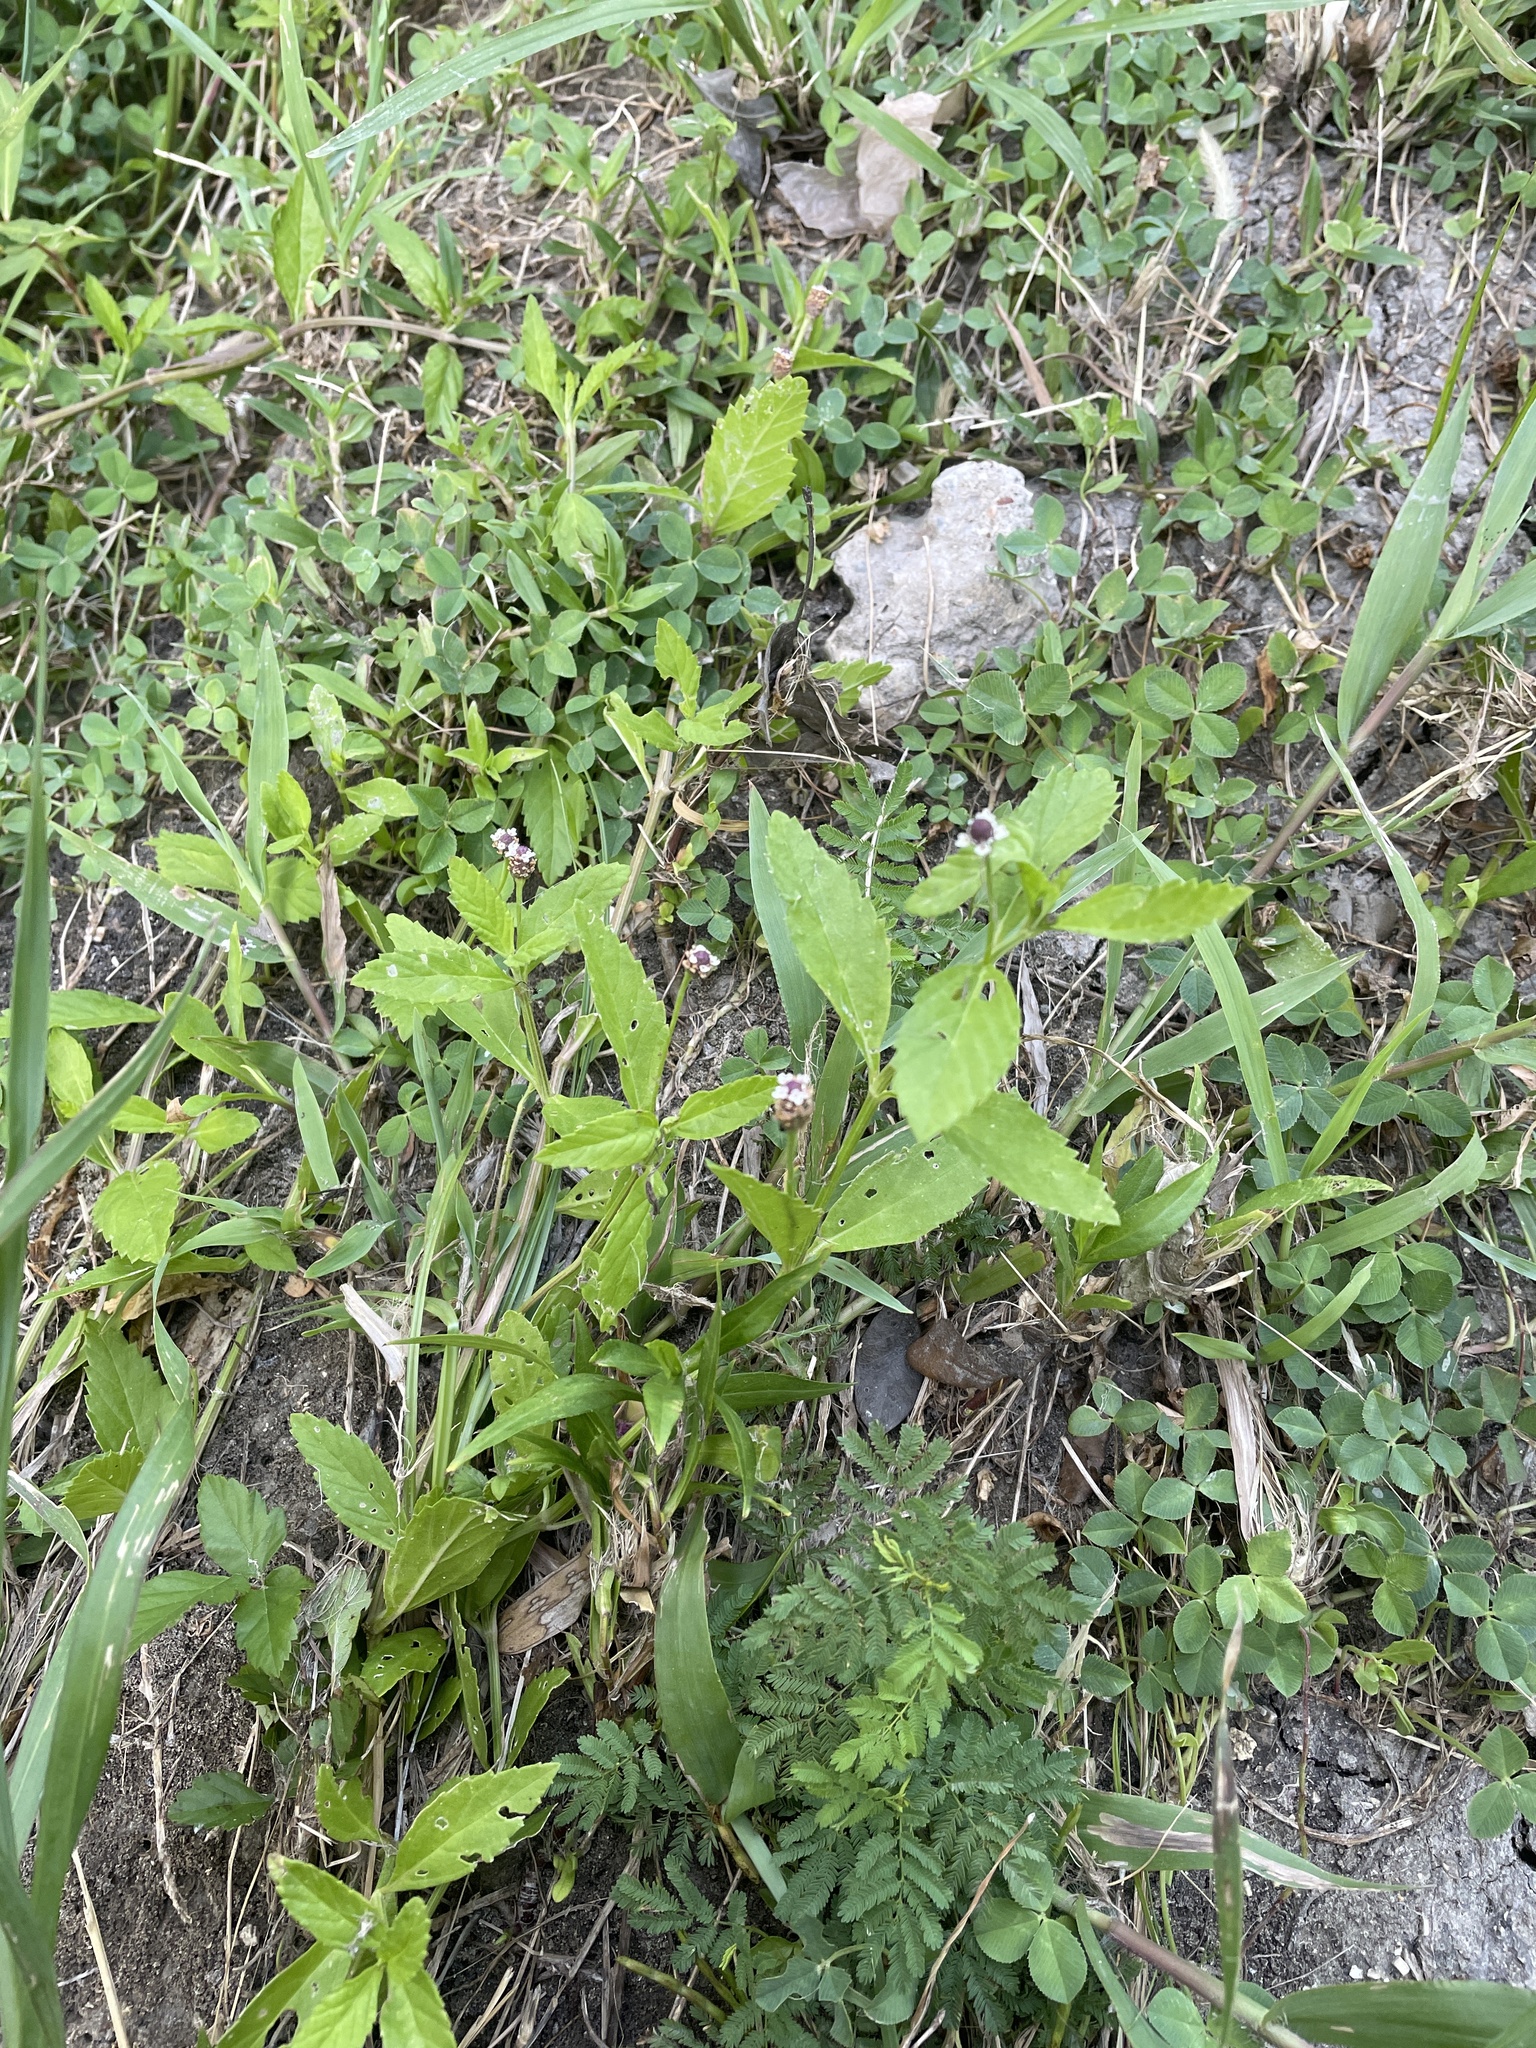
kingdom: Plantae
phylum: Tracheophyta
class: Magnoliopsida
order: Lamiales
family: Verbenaceae
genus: Phyla
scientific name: Phyla lanceolata
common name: Northern fogfruit
